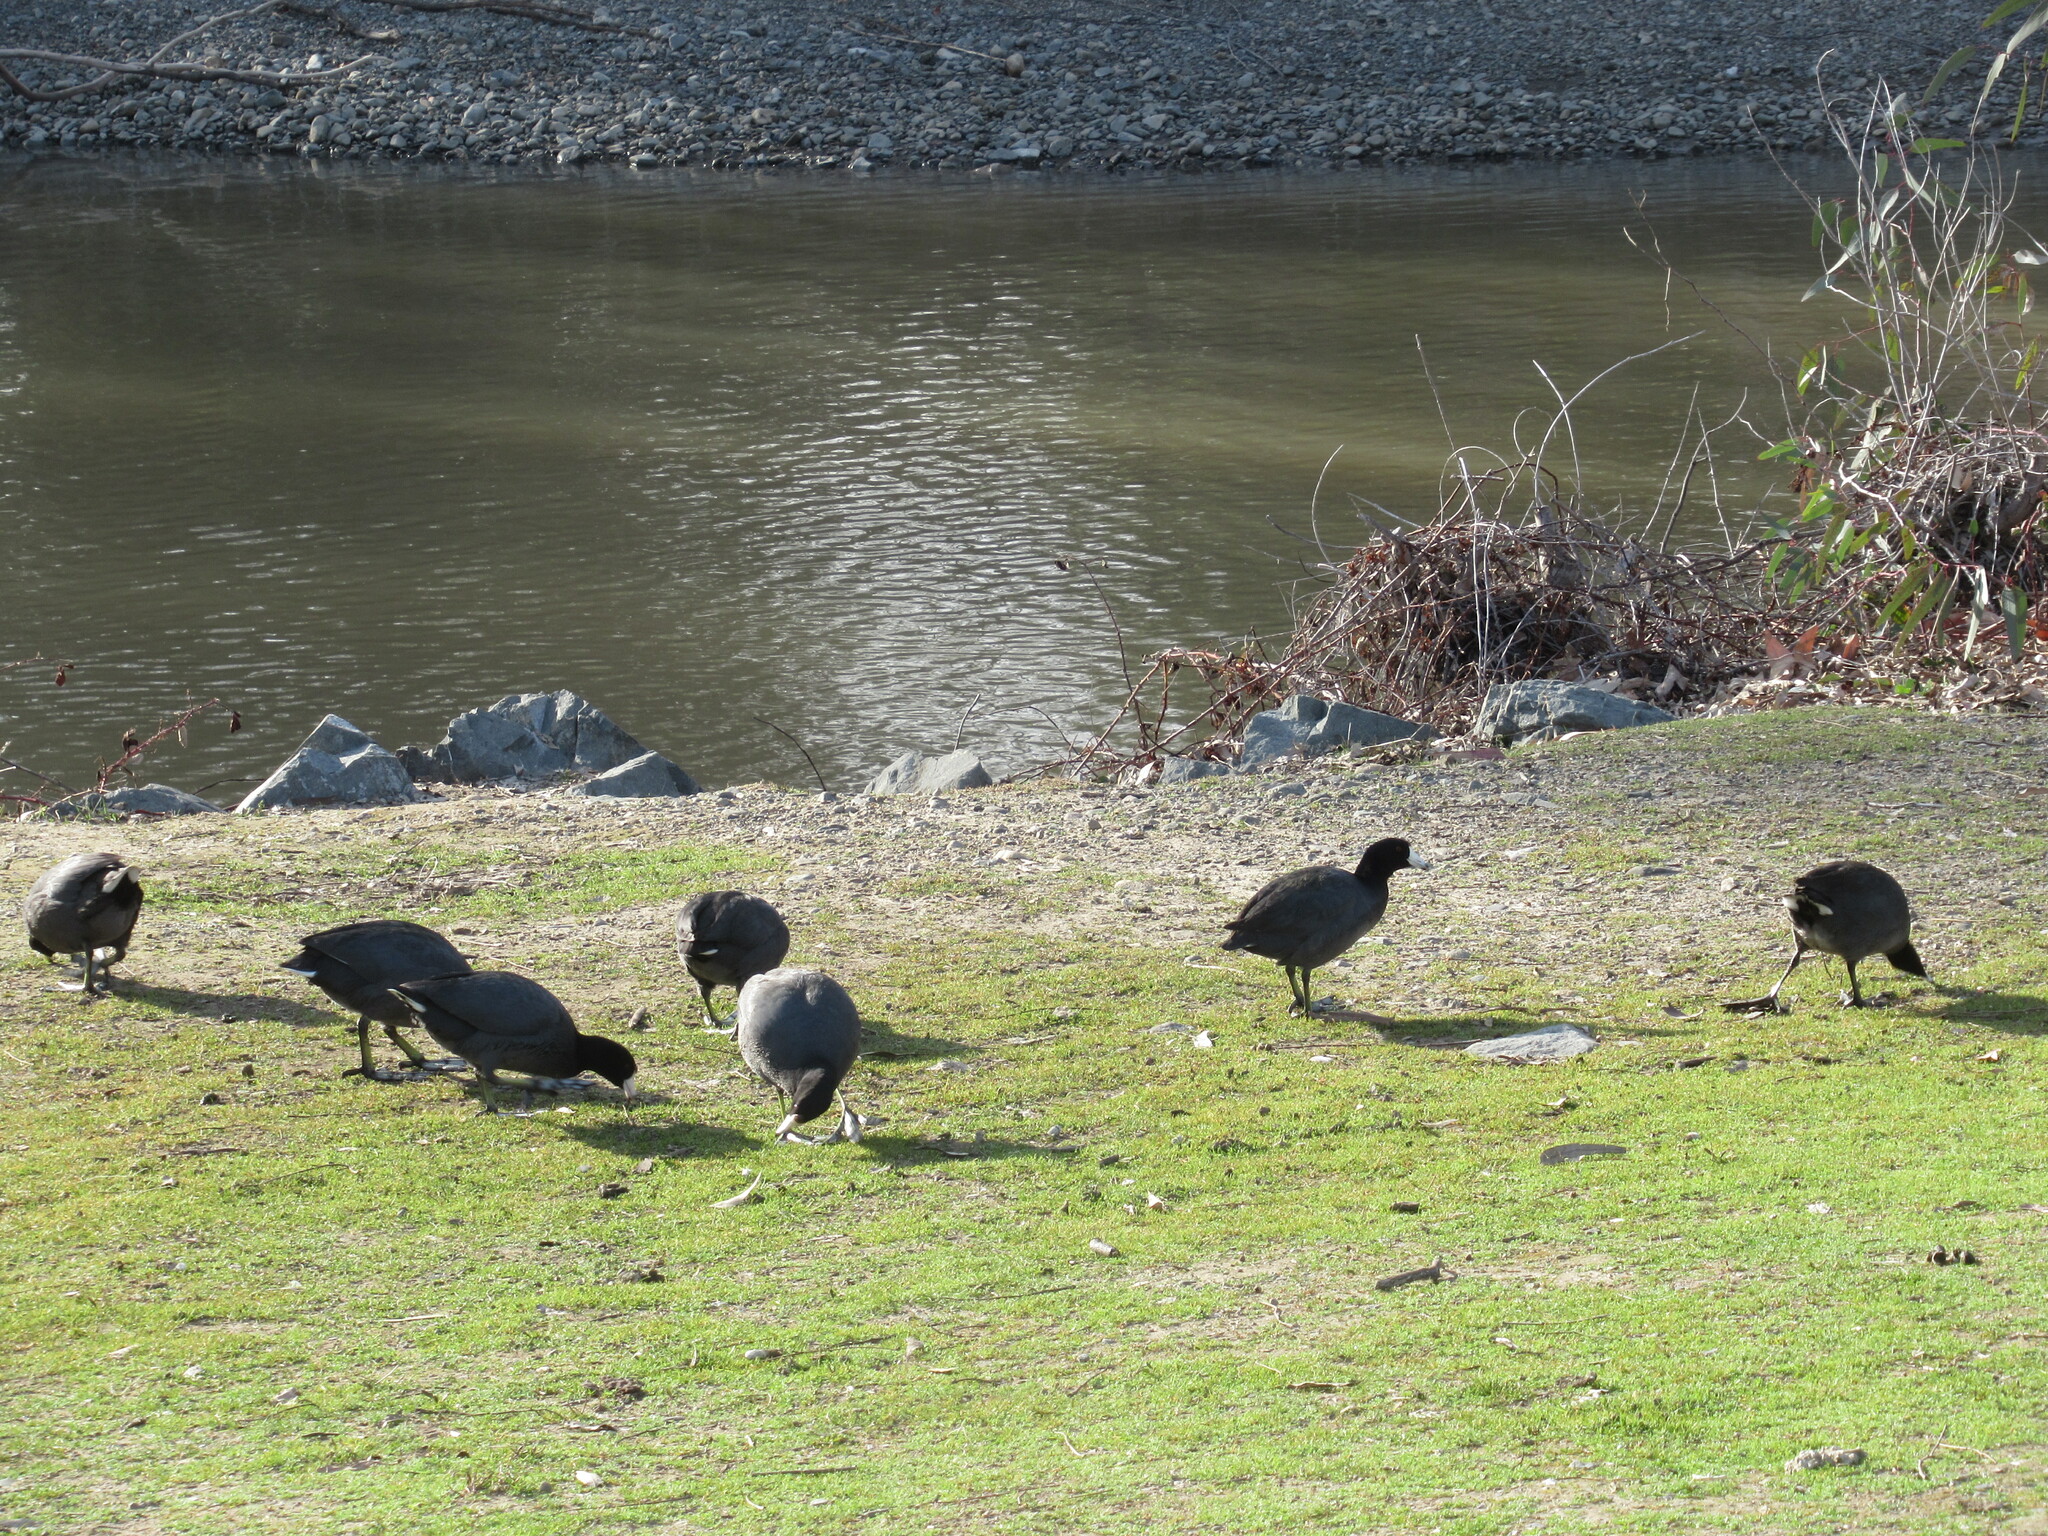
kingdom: Animalia
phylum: Chordata
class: Aves
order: Gruiformes
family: Rallidae
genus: Fulica
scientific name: Fulica americana
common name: American coot
